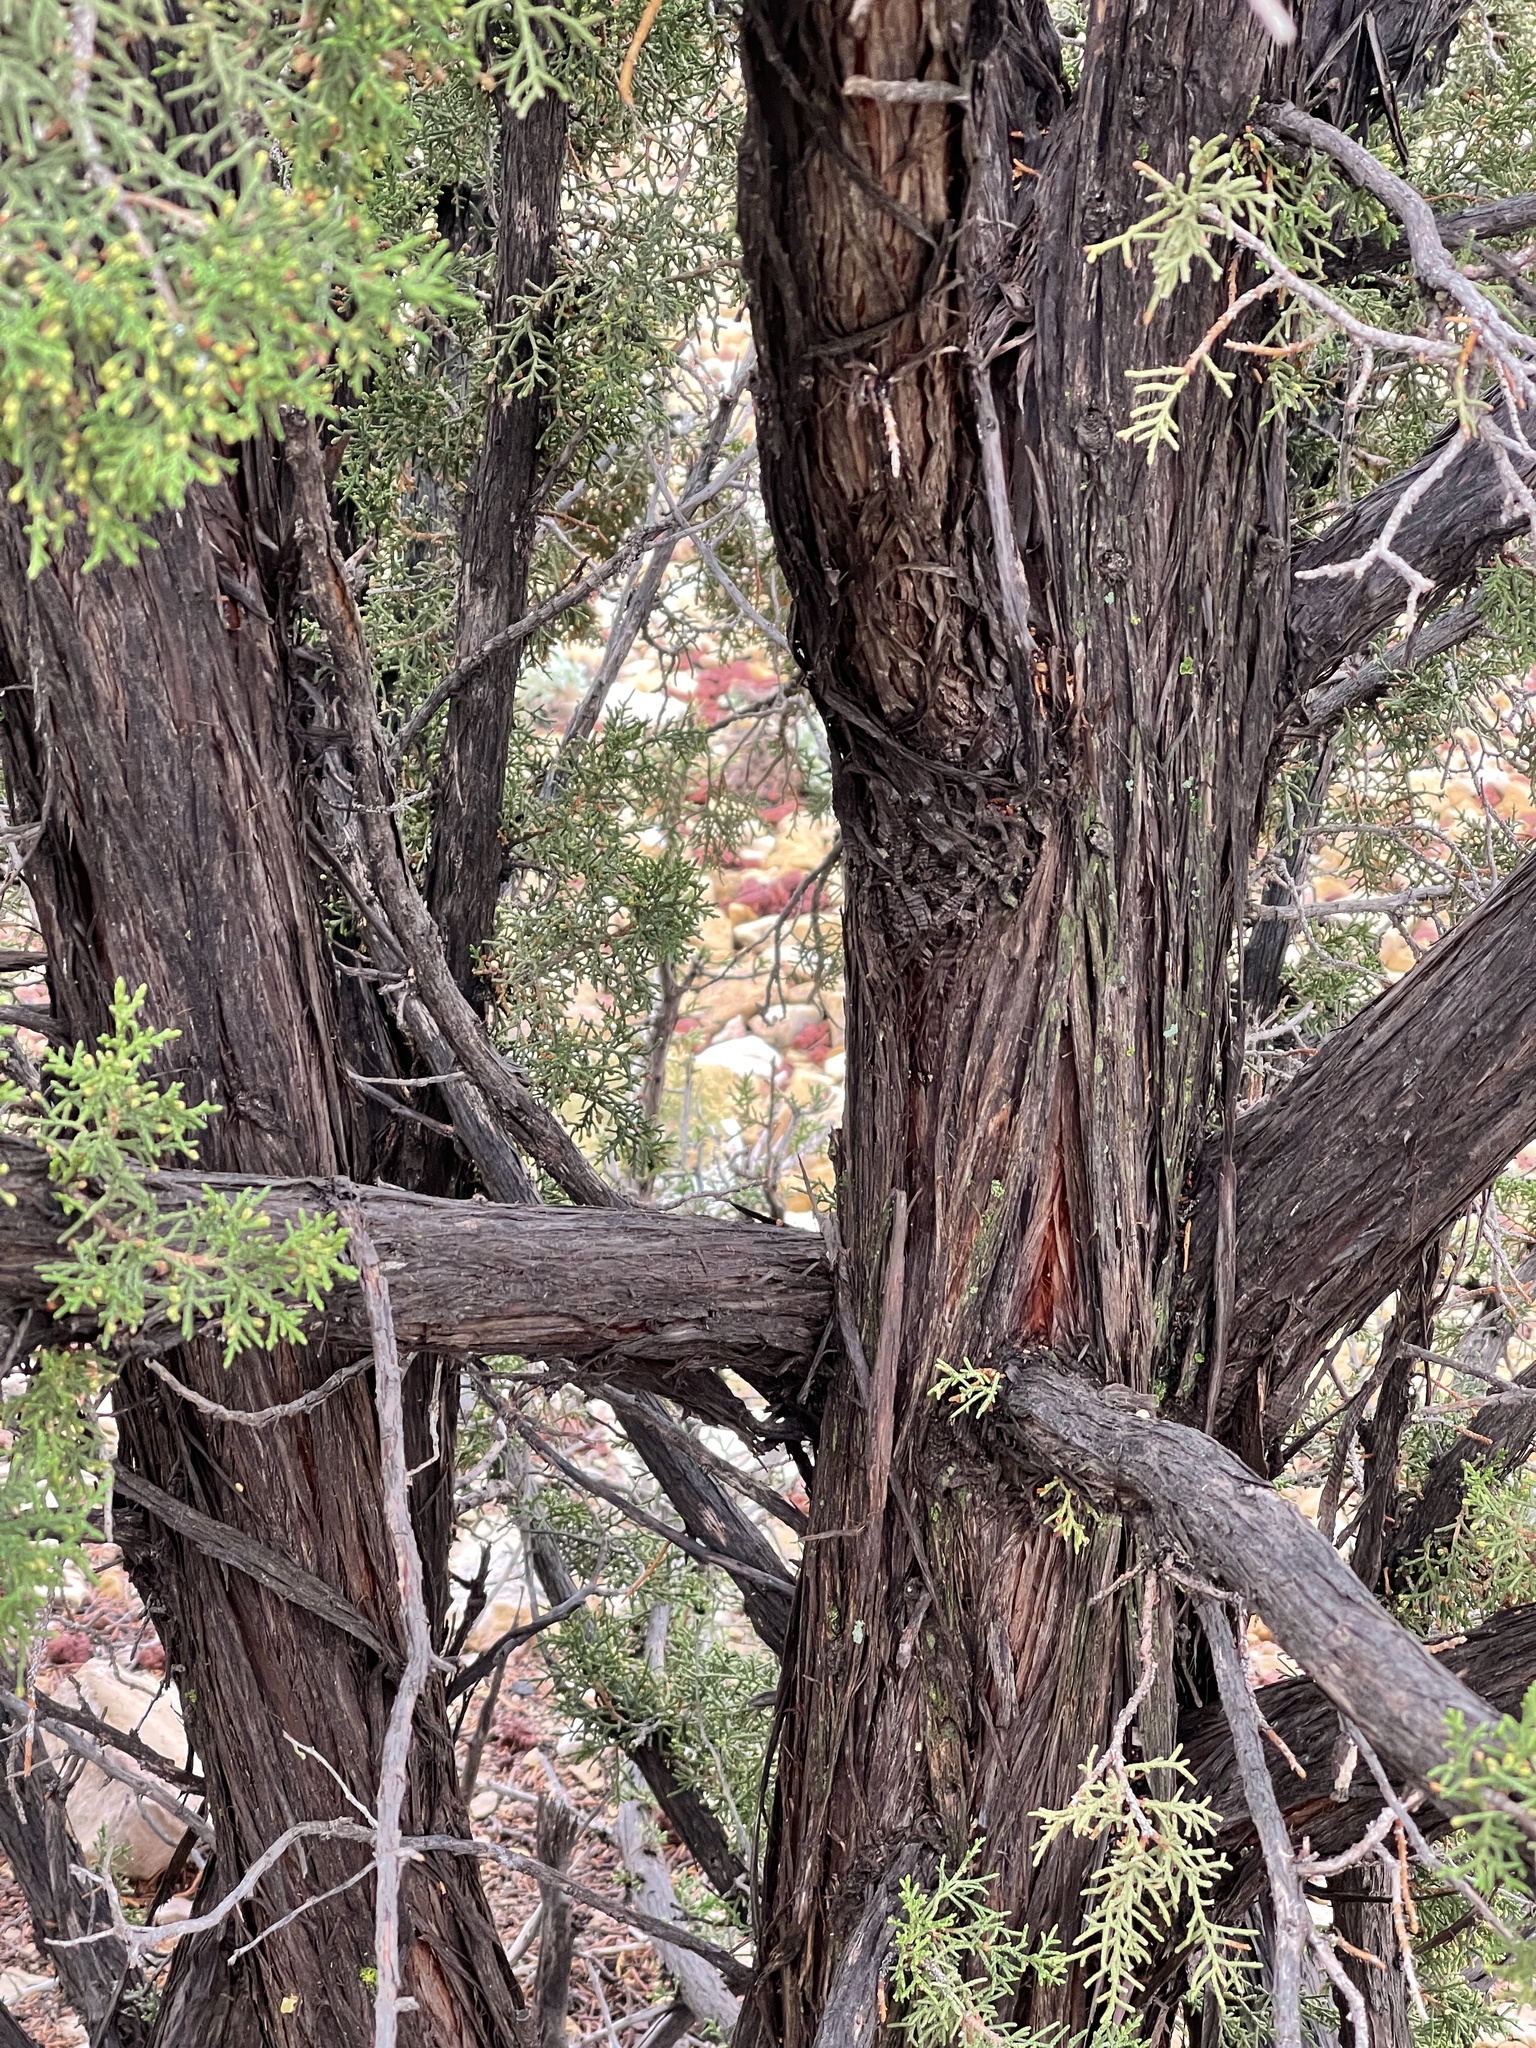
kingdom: Plantae
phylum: Tracheophyta
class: Pinopsida
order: Pinales
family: Cupressaceae
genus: Juniperus
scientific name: Juniperus monosperma
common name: One-seed juniper
